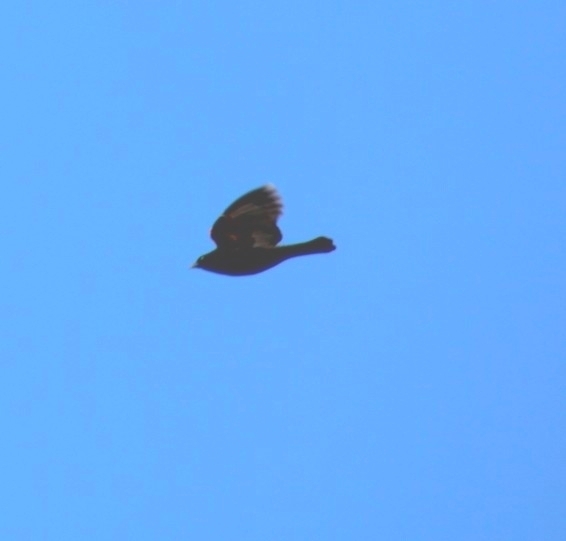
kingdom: Animalia
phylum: Chordata
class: Aves
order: Passeriformes
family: Icteridae
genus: Agelaius
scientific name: Agelaius phoeniceus
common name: Red-winged blackbird
